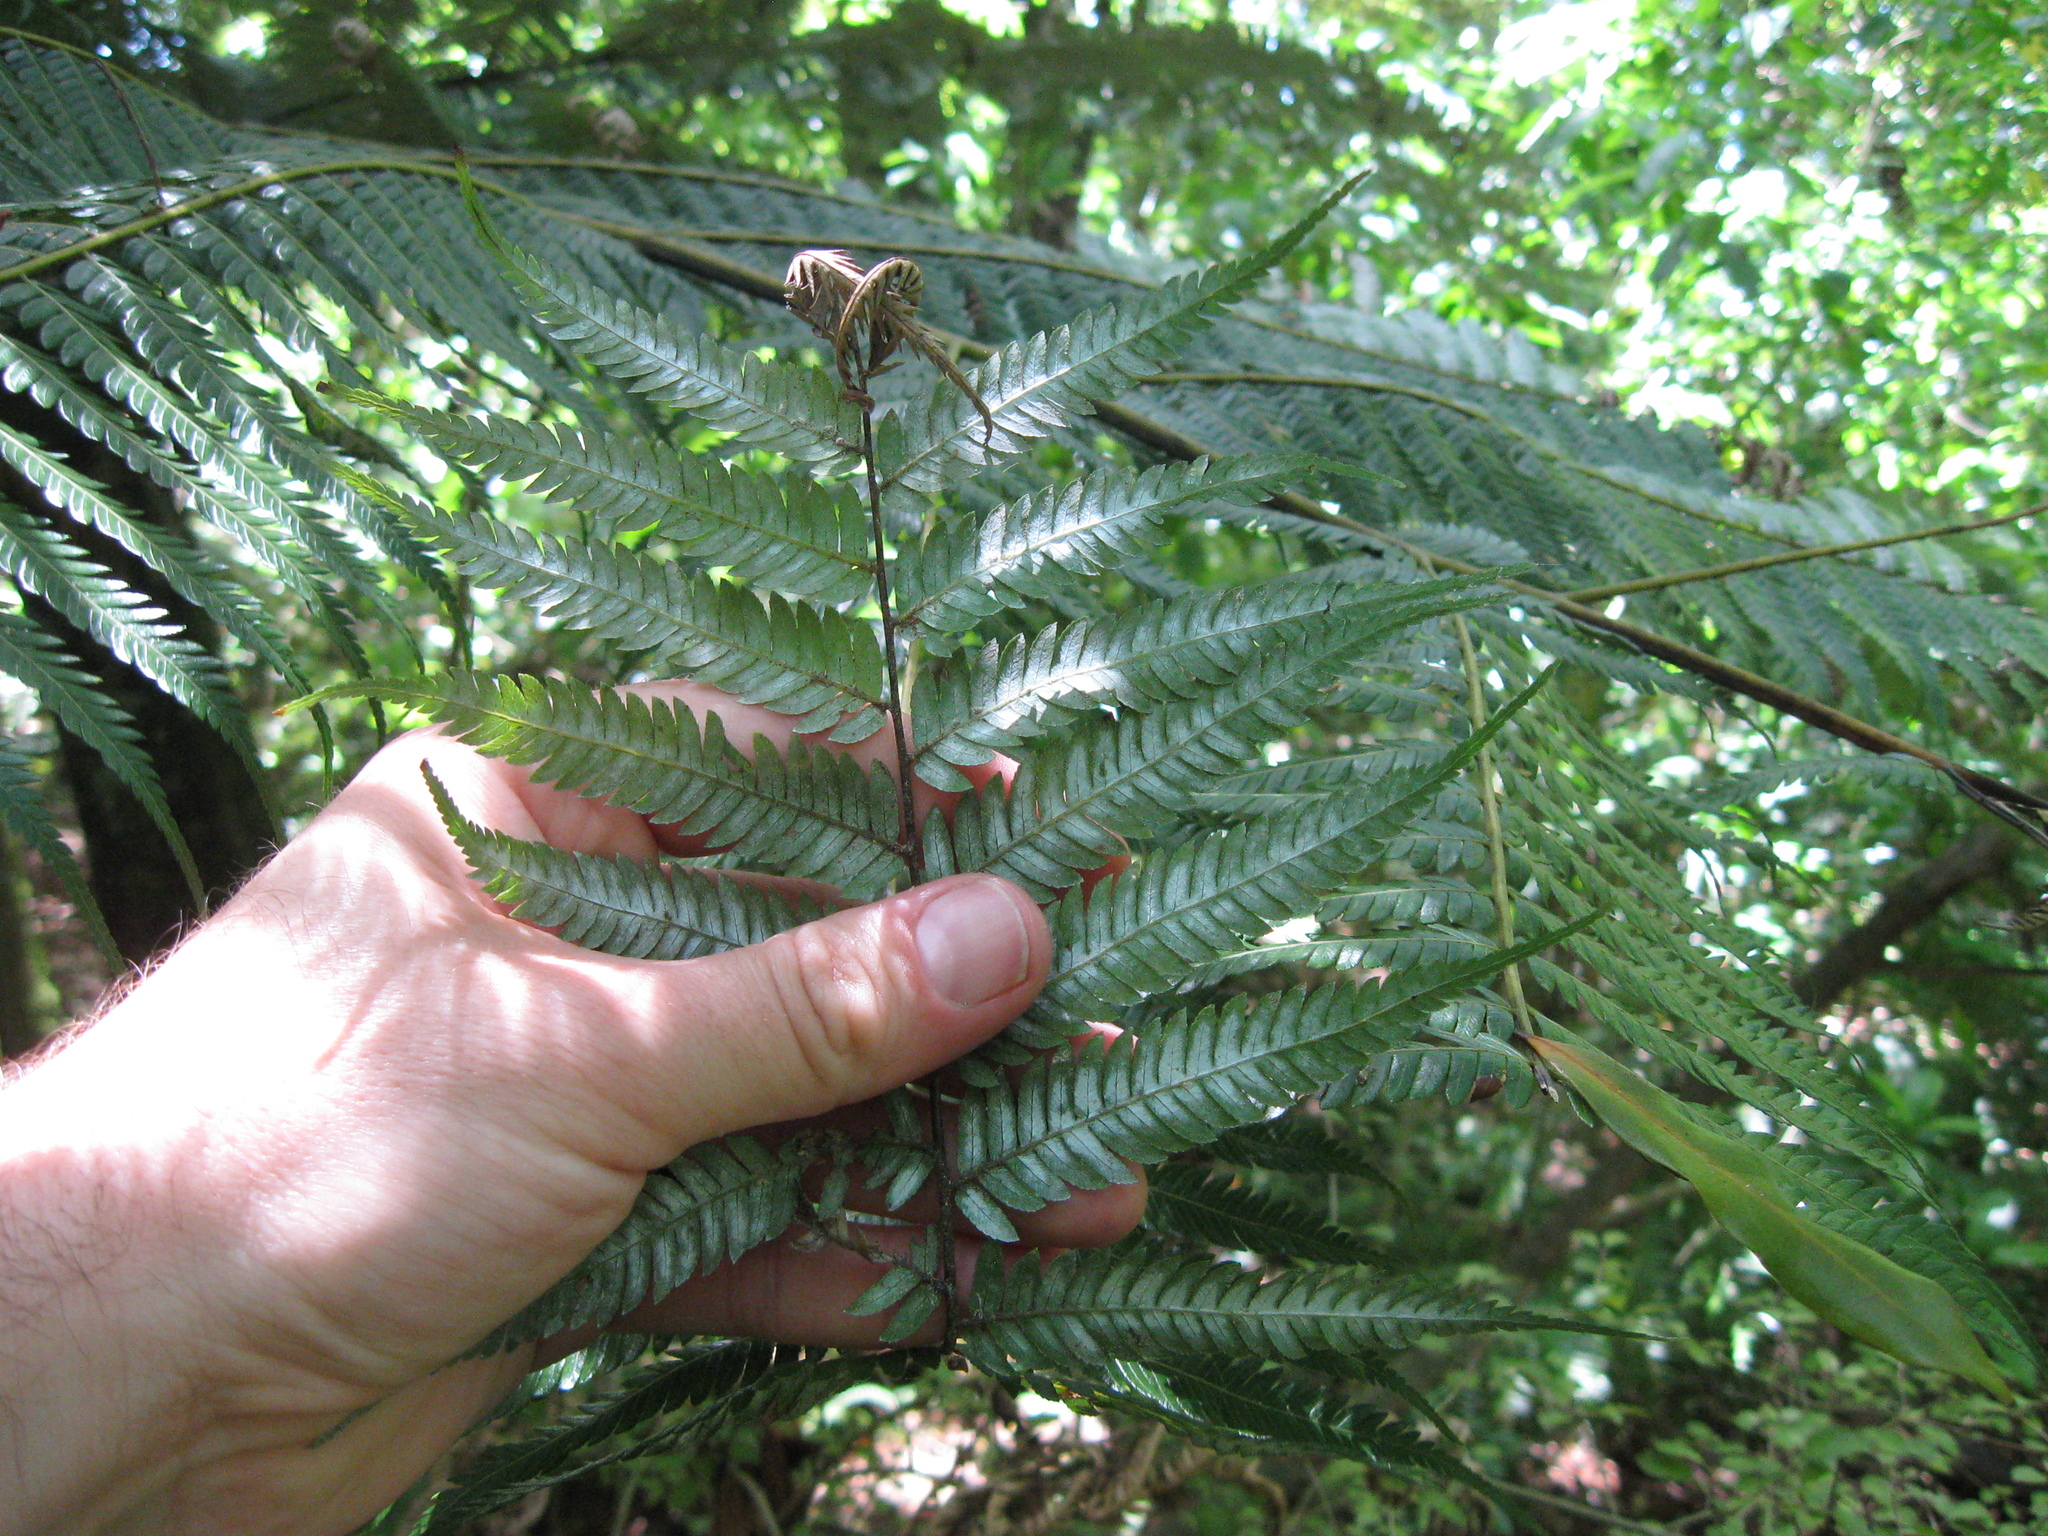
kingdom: Plantae
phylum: Tracheophyta
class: Polypodiopsida
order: Cyatheales
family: Cyatheaceae
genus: Alsophila
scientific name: Alsophila dealbata
